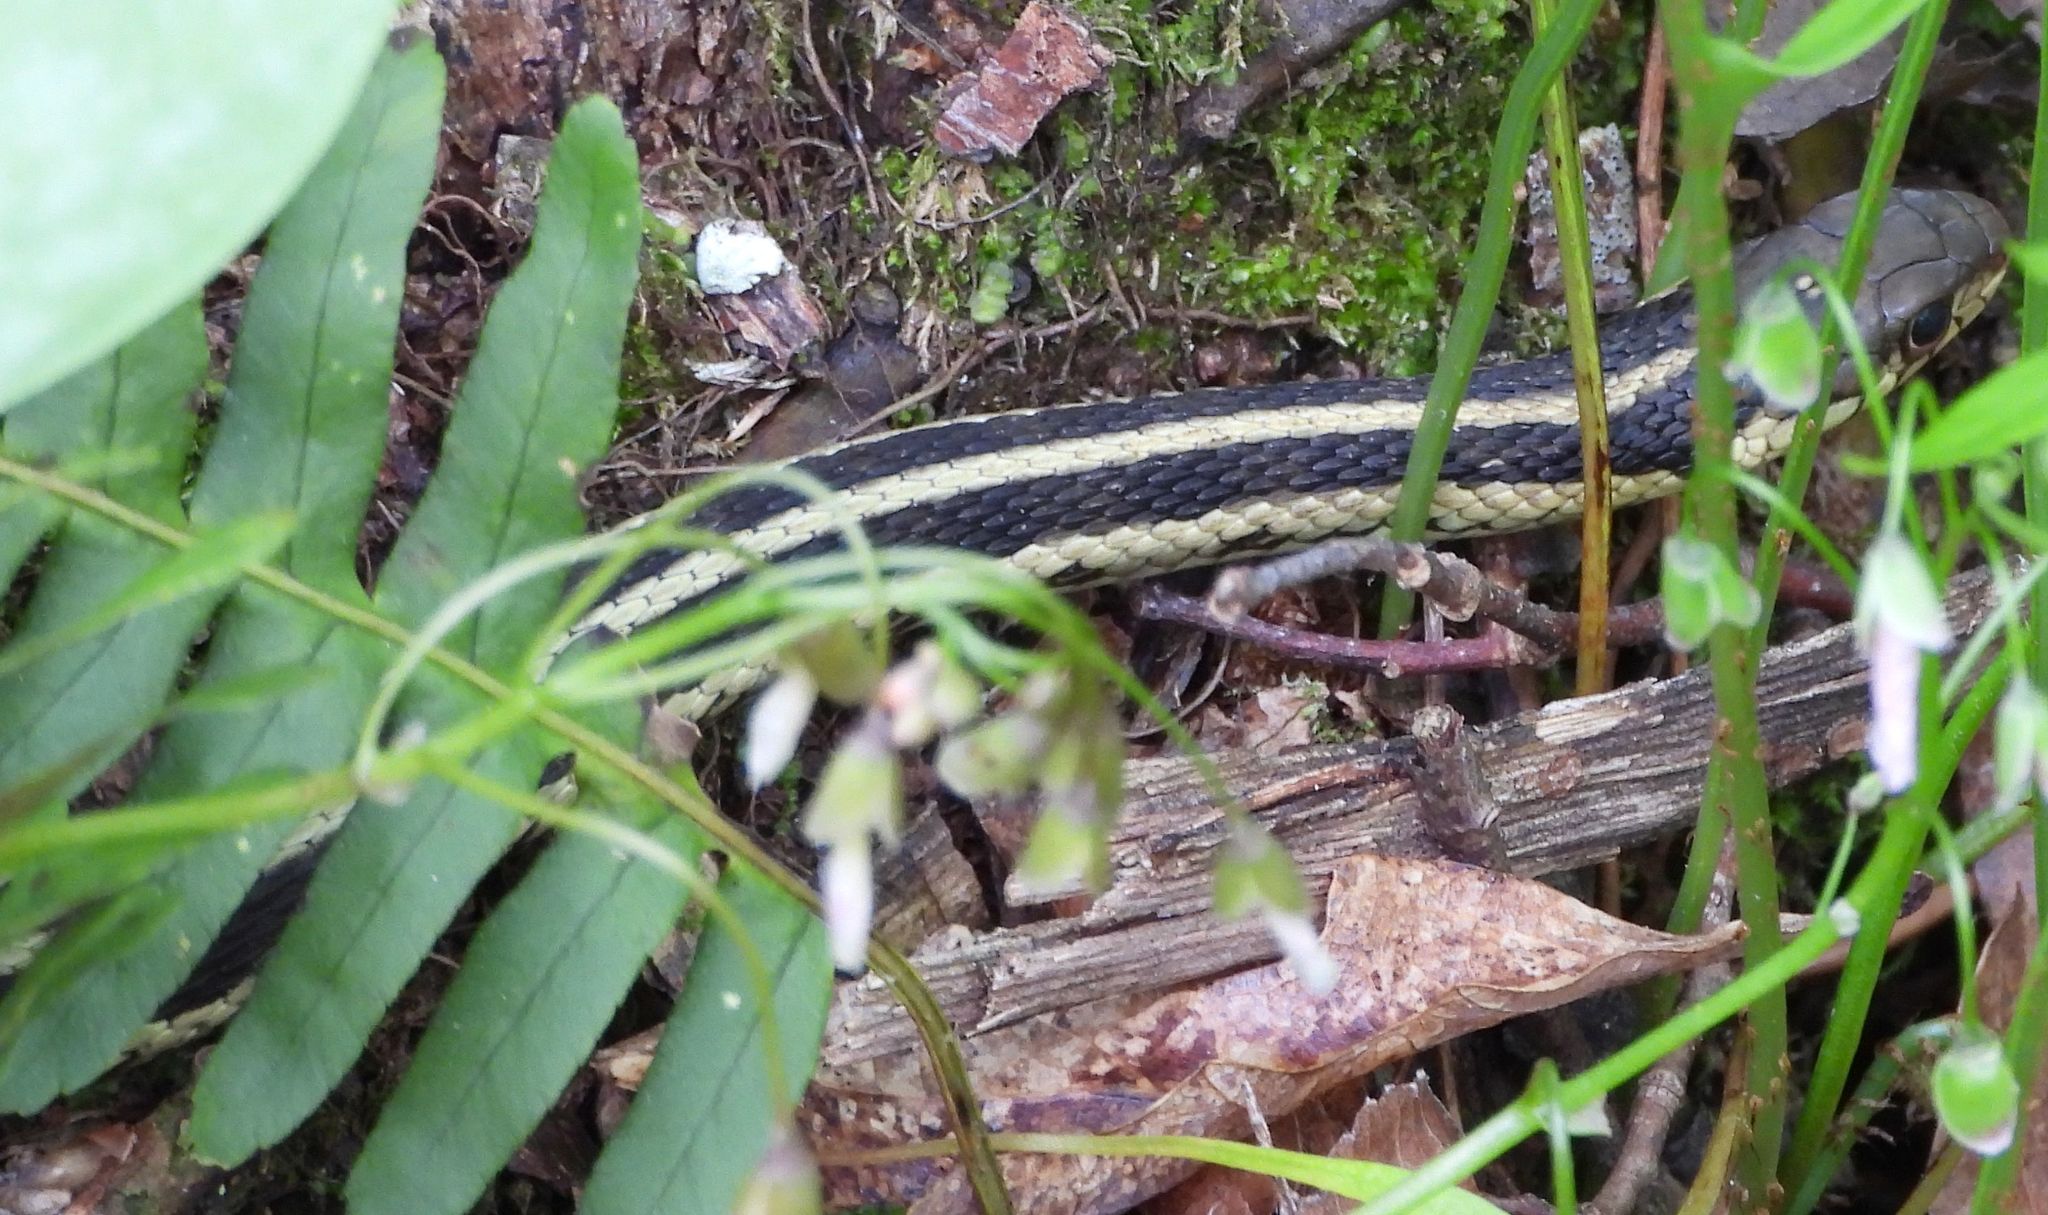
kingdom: Animalia
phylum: Chordata
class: Squamata
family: Colubridae
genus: Thamnophis
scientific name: Thamnophis sirtalis
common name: Common garter snake
